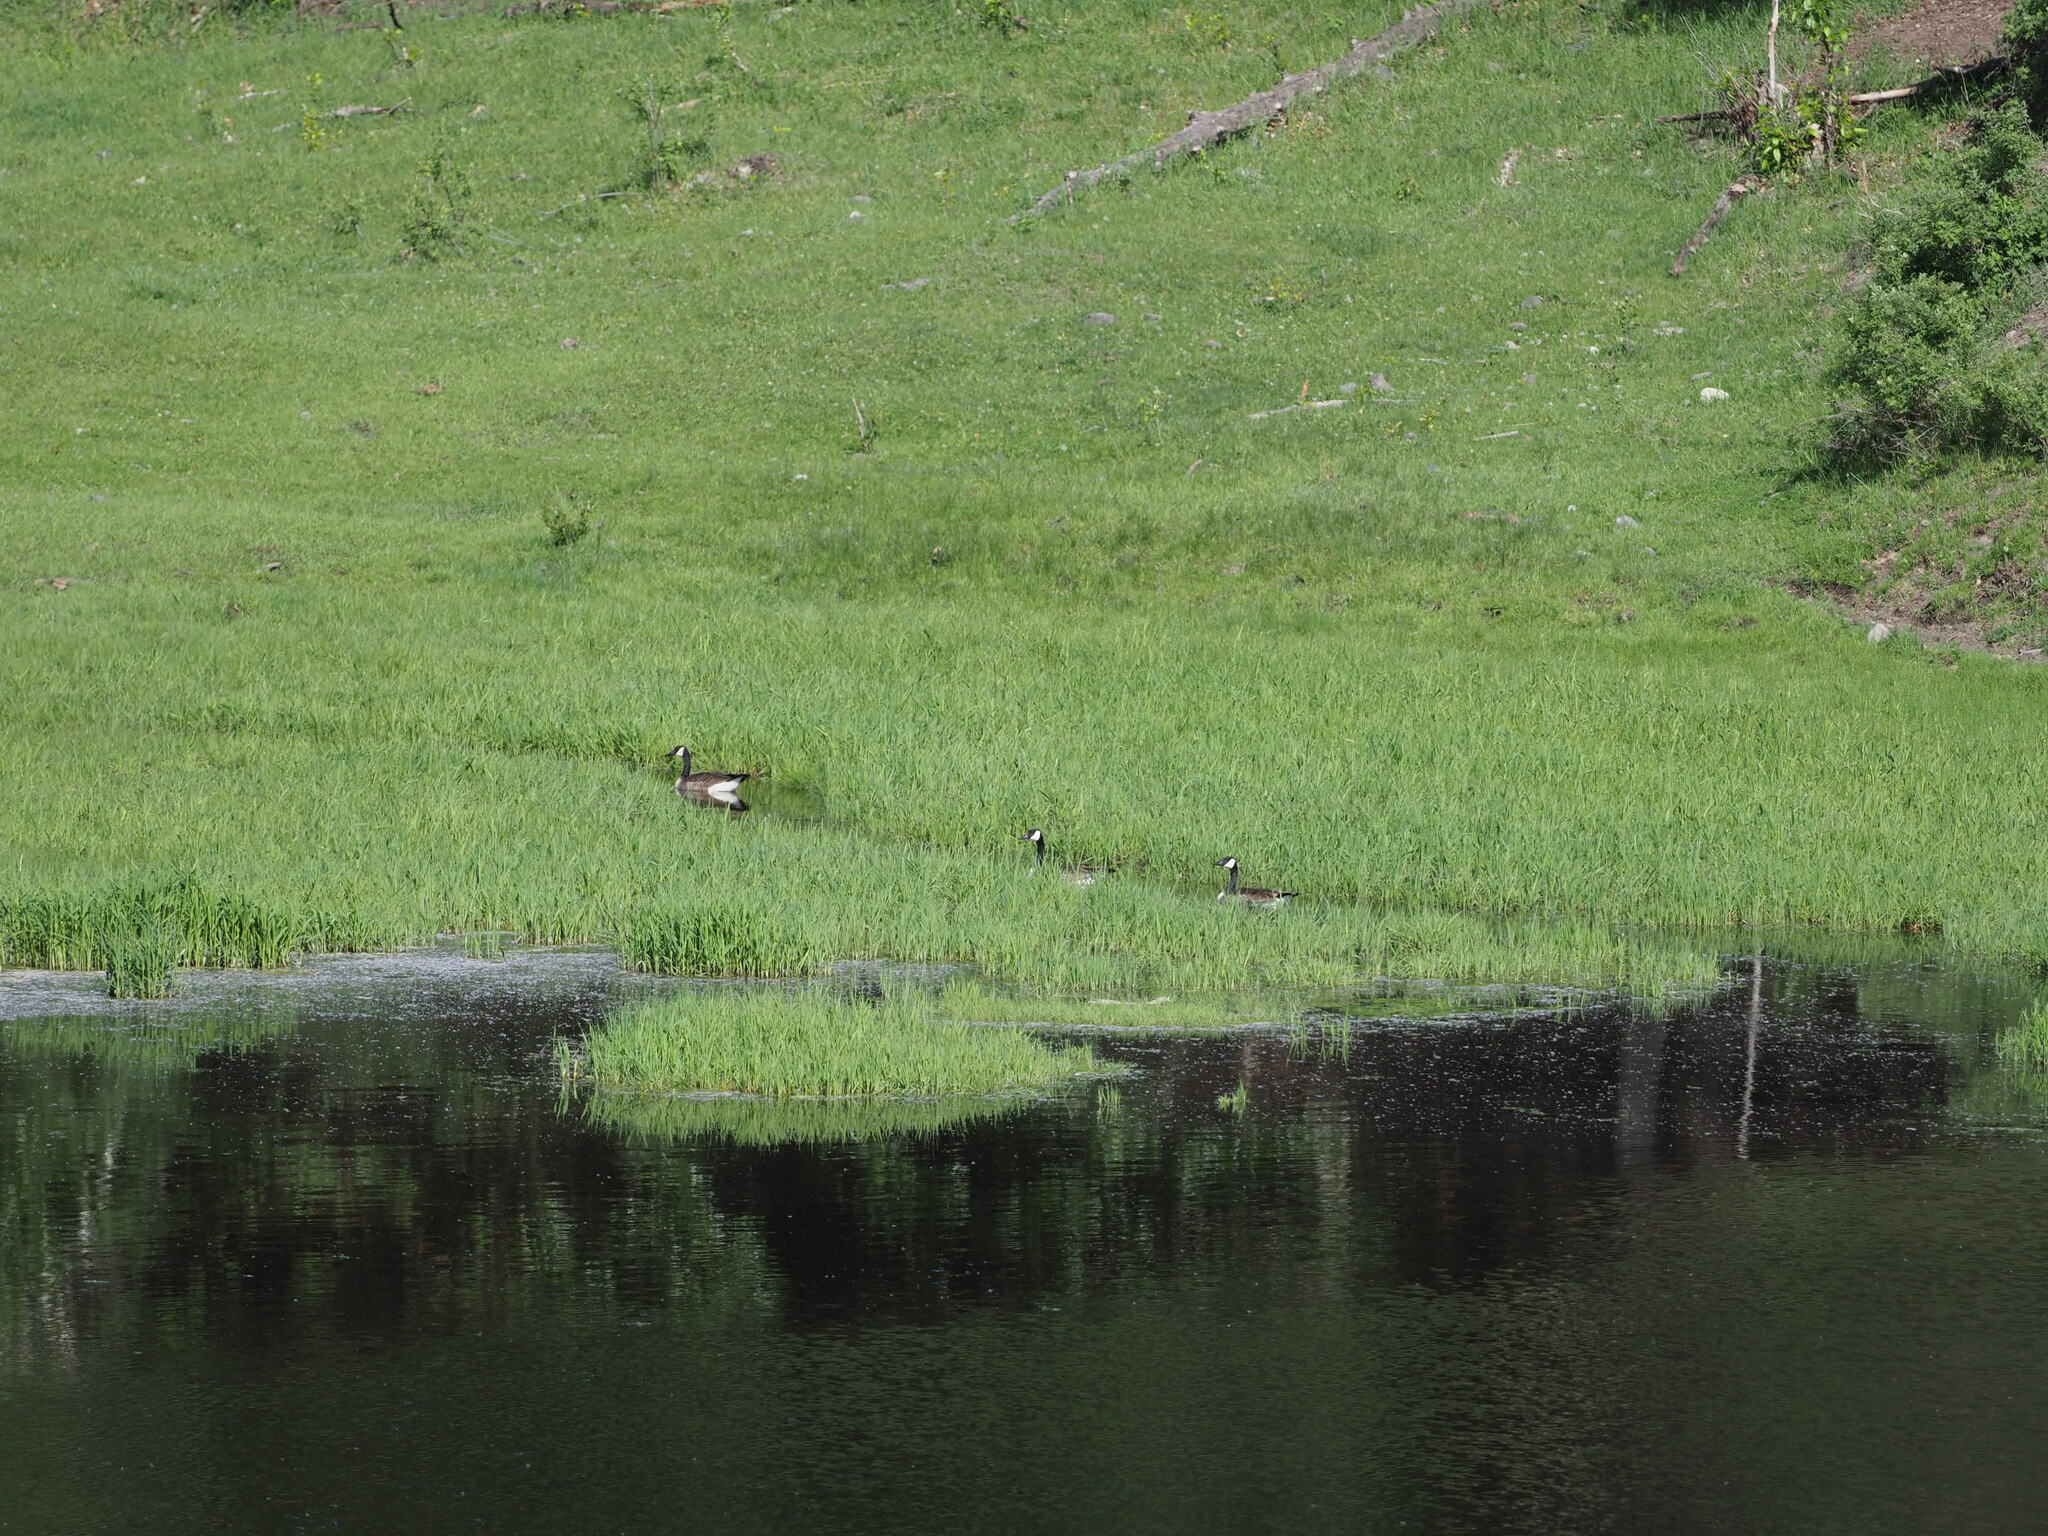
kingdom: Animalia
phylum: Chordata
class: Aves
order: Anseriformes
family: Anatidae
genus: Branta
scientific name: Branta canadensis
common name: Canada goose
